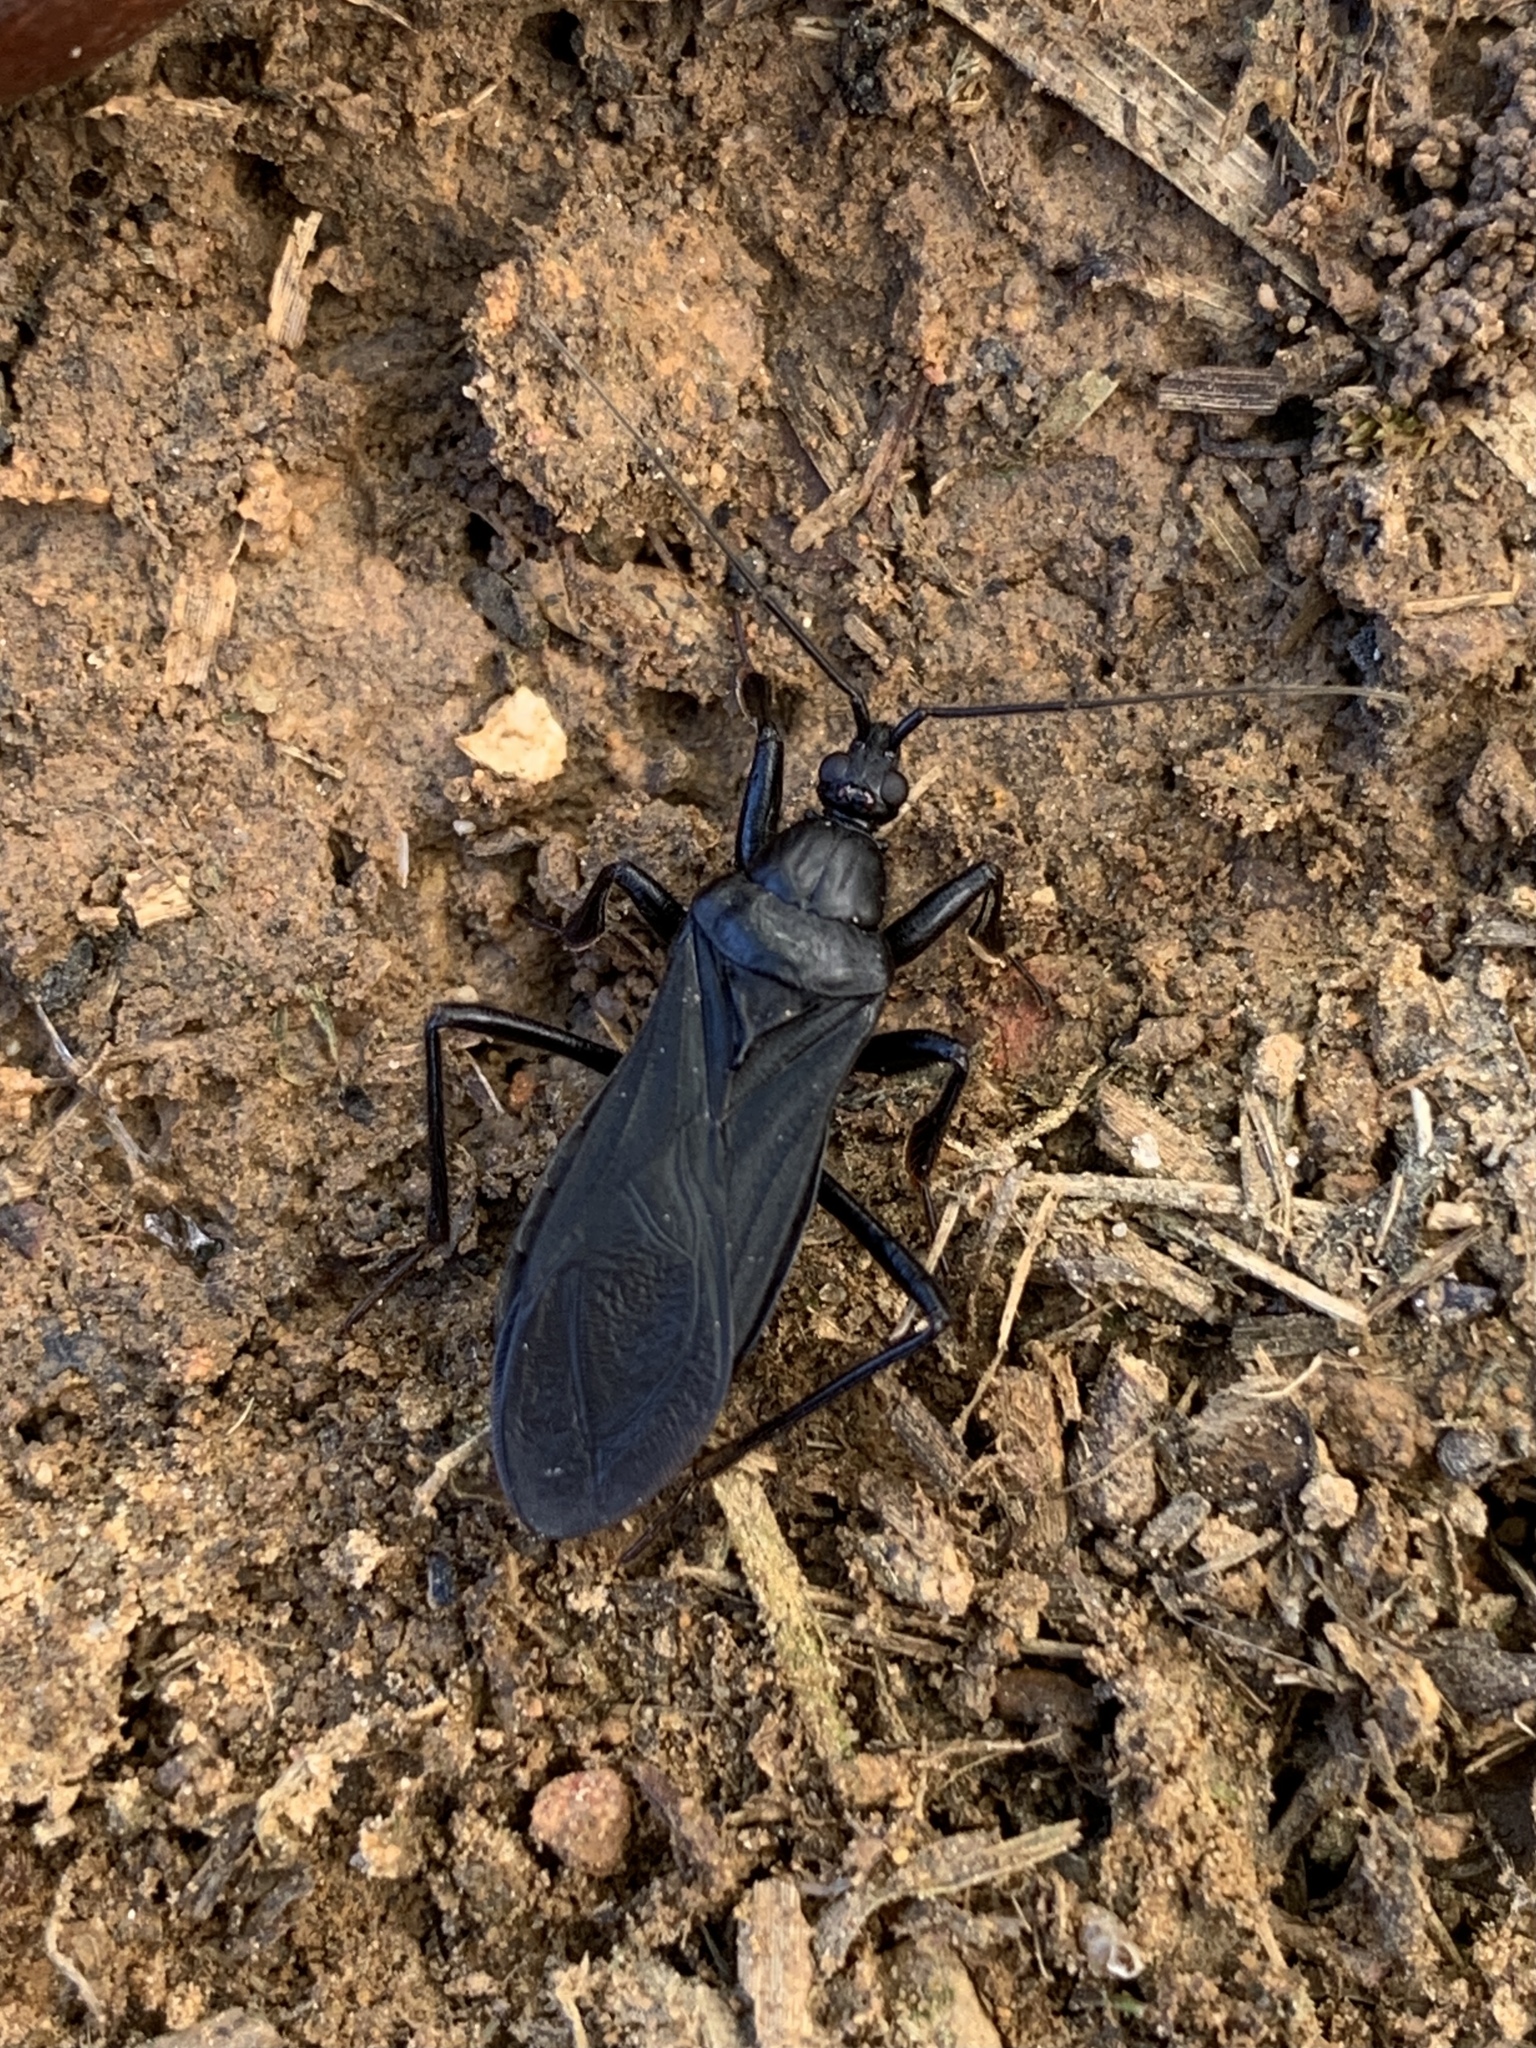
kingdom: Animalia
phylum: Arthropoda
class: Insecta
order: Hemiptera
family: Reduviidae
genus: Melanolestes
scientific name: Melanolestes picipes
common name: Assassin bug
